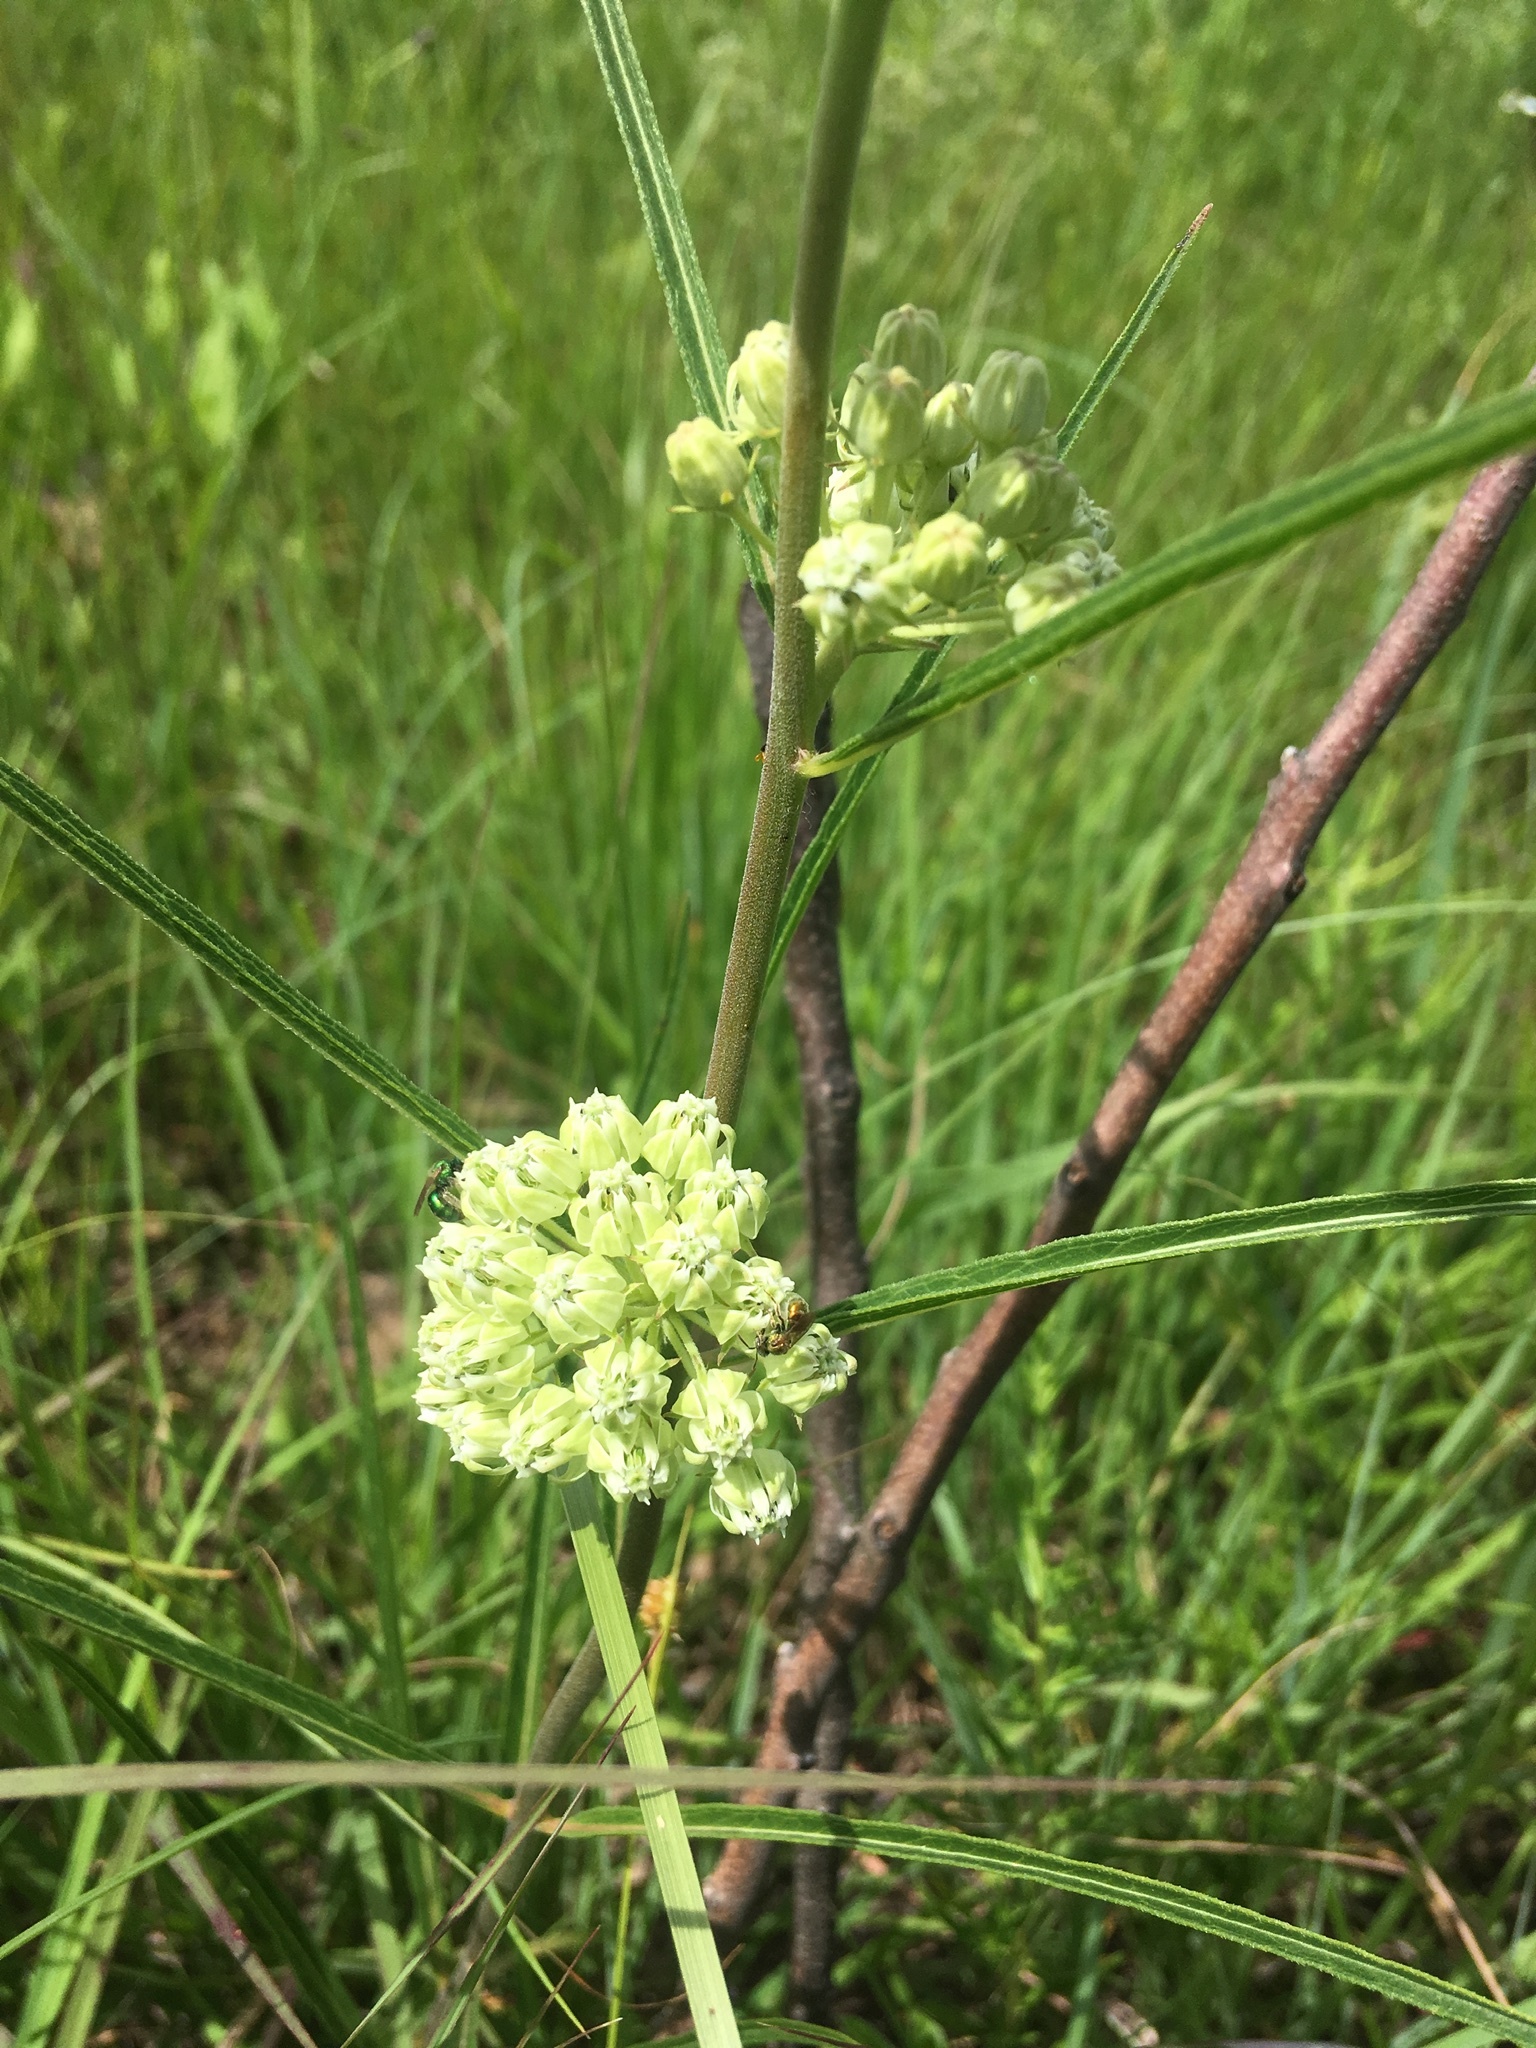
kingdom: Plantae
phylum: Tracheophyta
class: Magnoliopsida
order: Gentianales
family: Apocynaceae
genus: Asclepias
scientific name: Asclepias stenophylla
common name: Narrow-leaf milkweed
